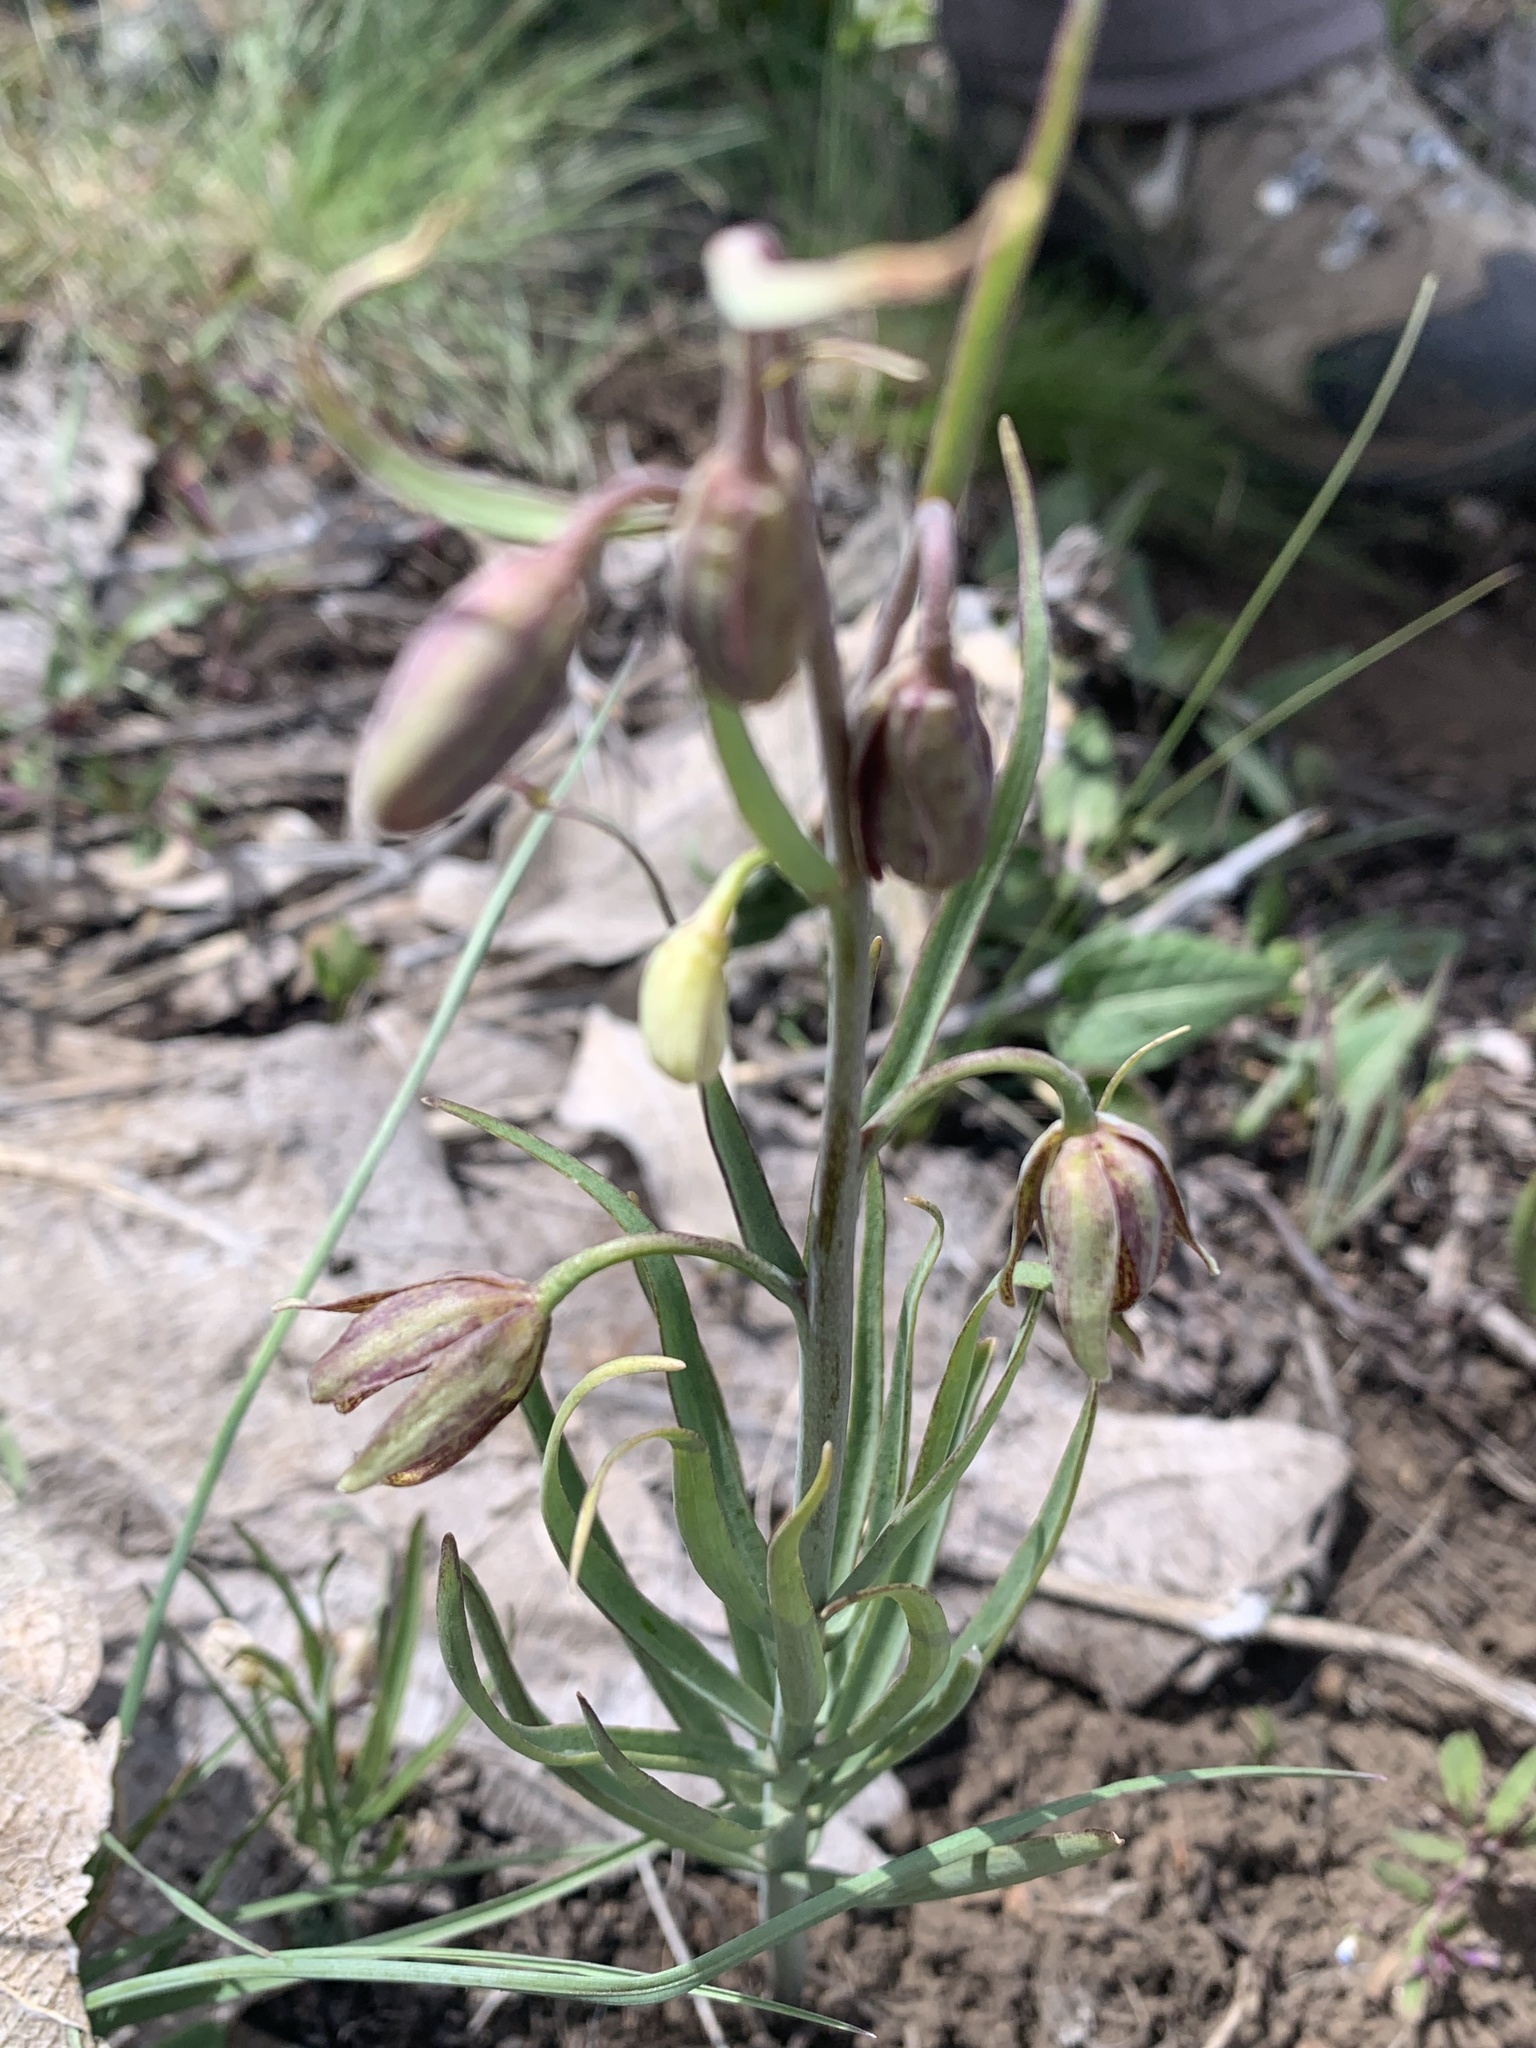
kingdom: Plantae
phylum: Tracheophyta
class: Liliopsida
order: Liliales
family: Liliaceae
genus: Fritillaria
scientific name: Fritillaria atropurpurea
